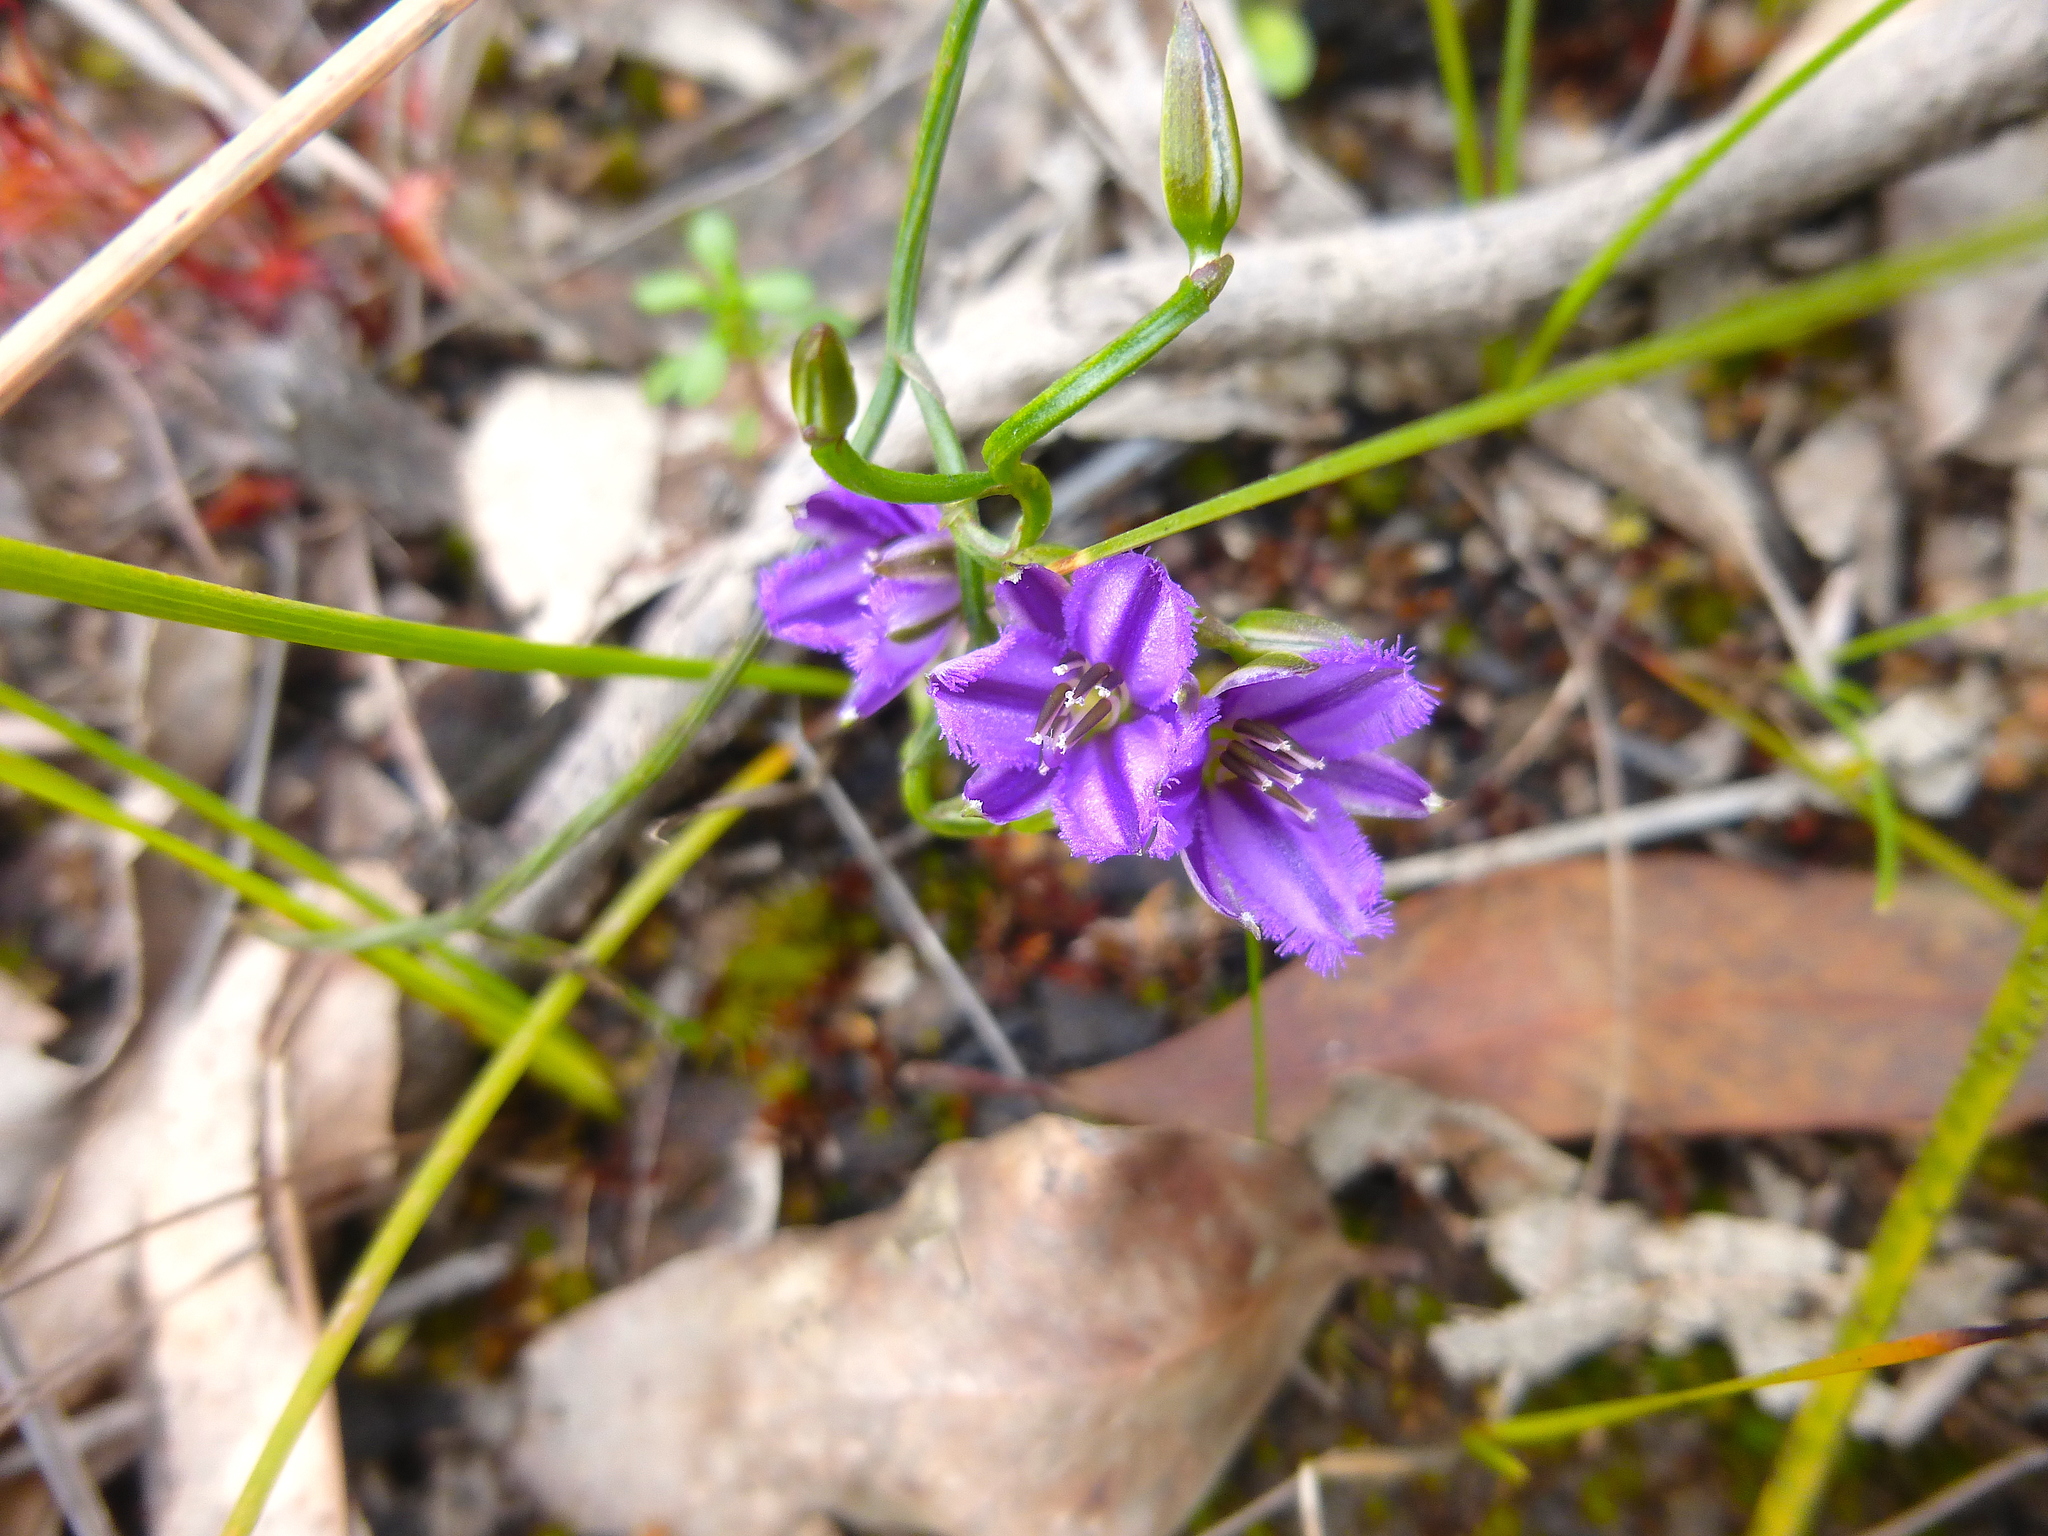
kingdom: Plantae
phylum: Tracheophyta
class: Liliopsida
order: Asparagales
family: Asparagaceae
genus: Thysanotus
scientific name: Thysanotus patersonii
